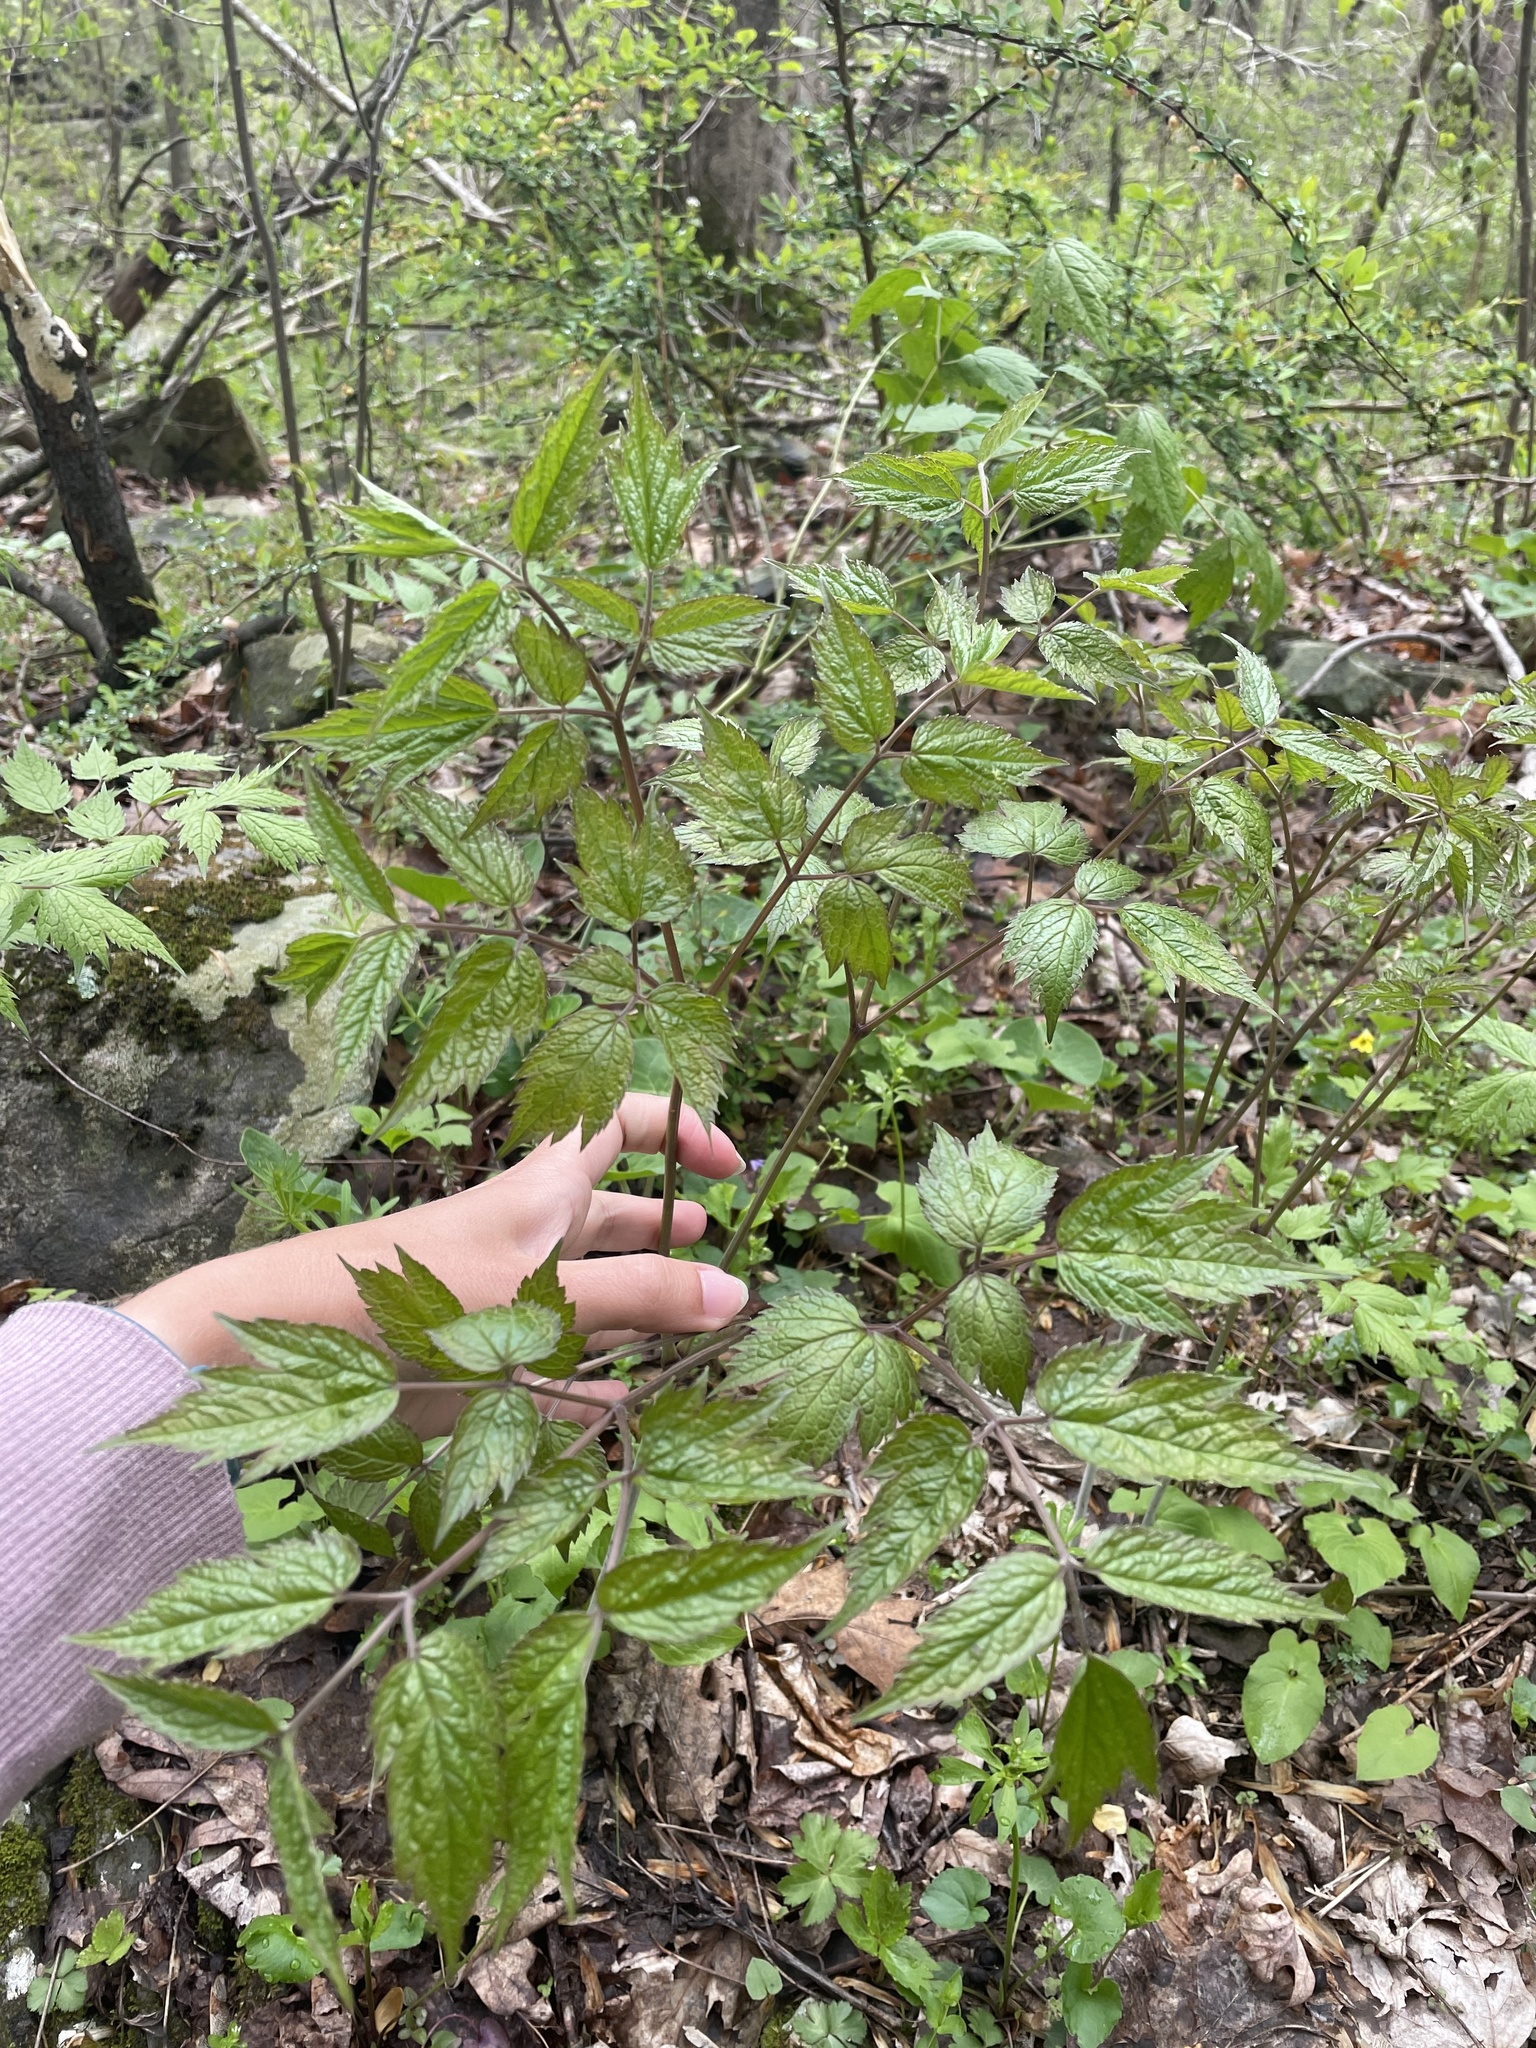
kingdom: Plantae
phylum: Tracheophyta
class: Magnoliopsida
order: Ranunculales
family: Ranunculaceae
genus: Actaea
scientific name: Actaea racemosa
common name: Black cohosh
